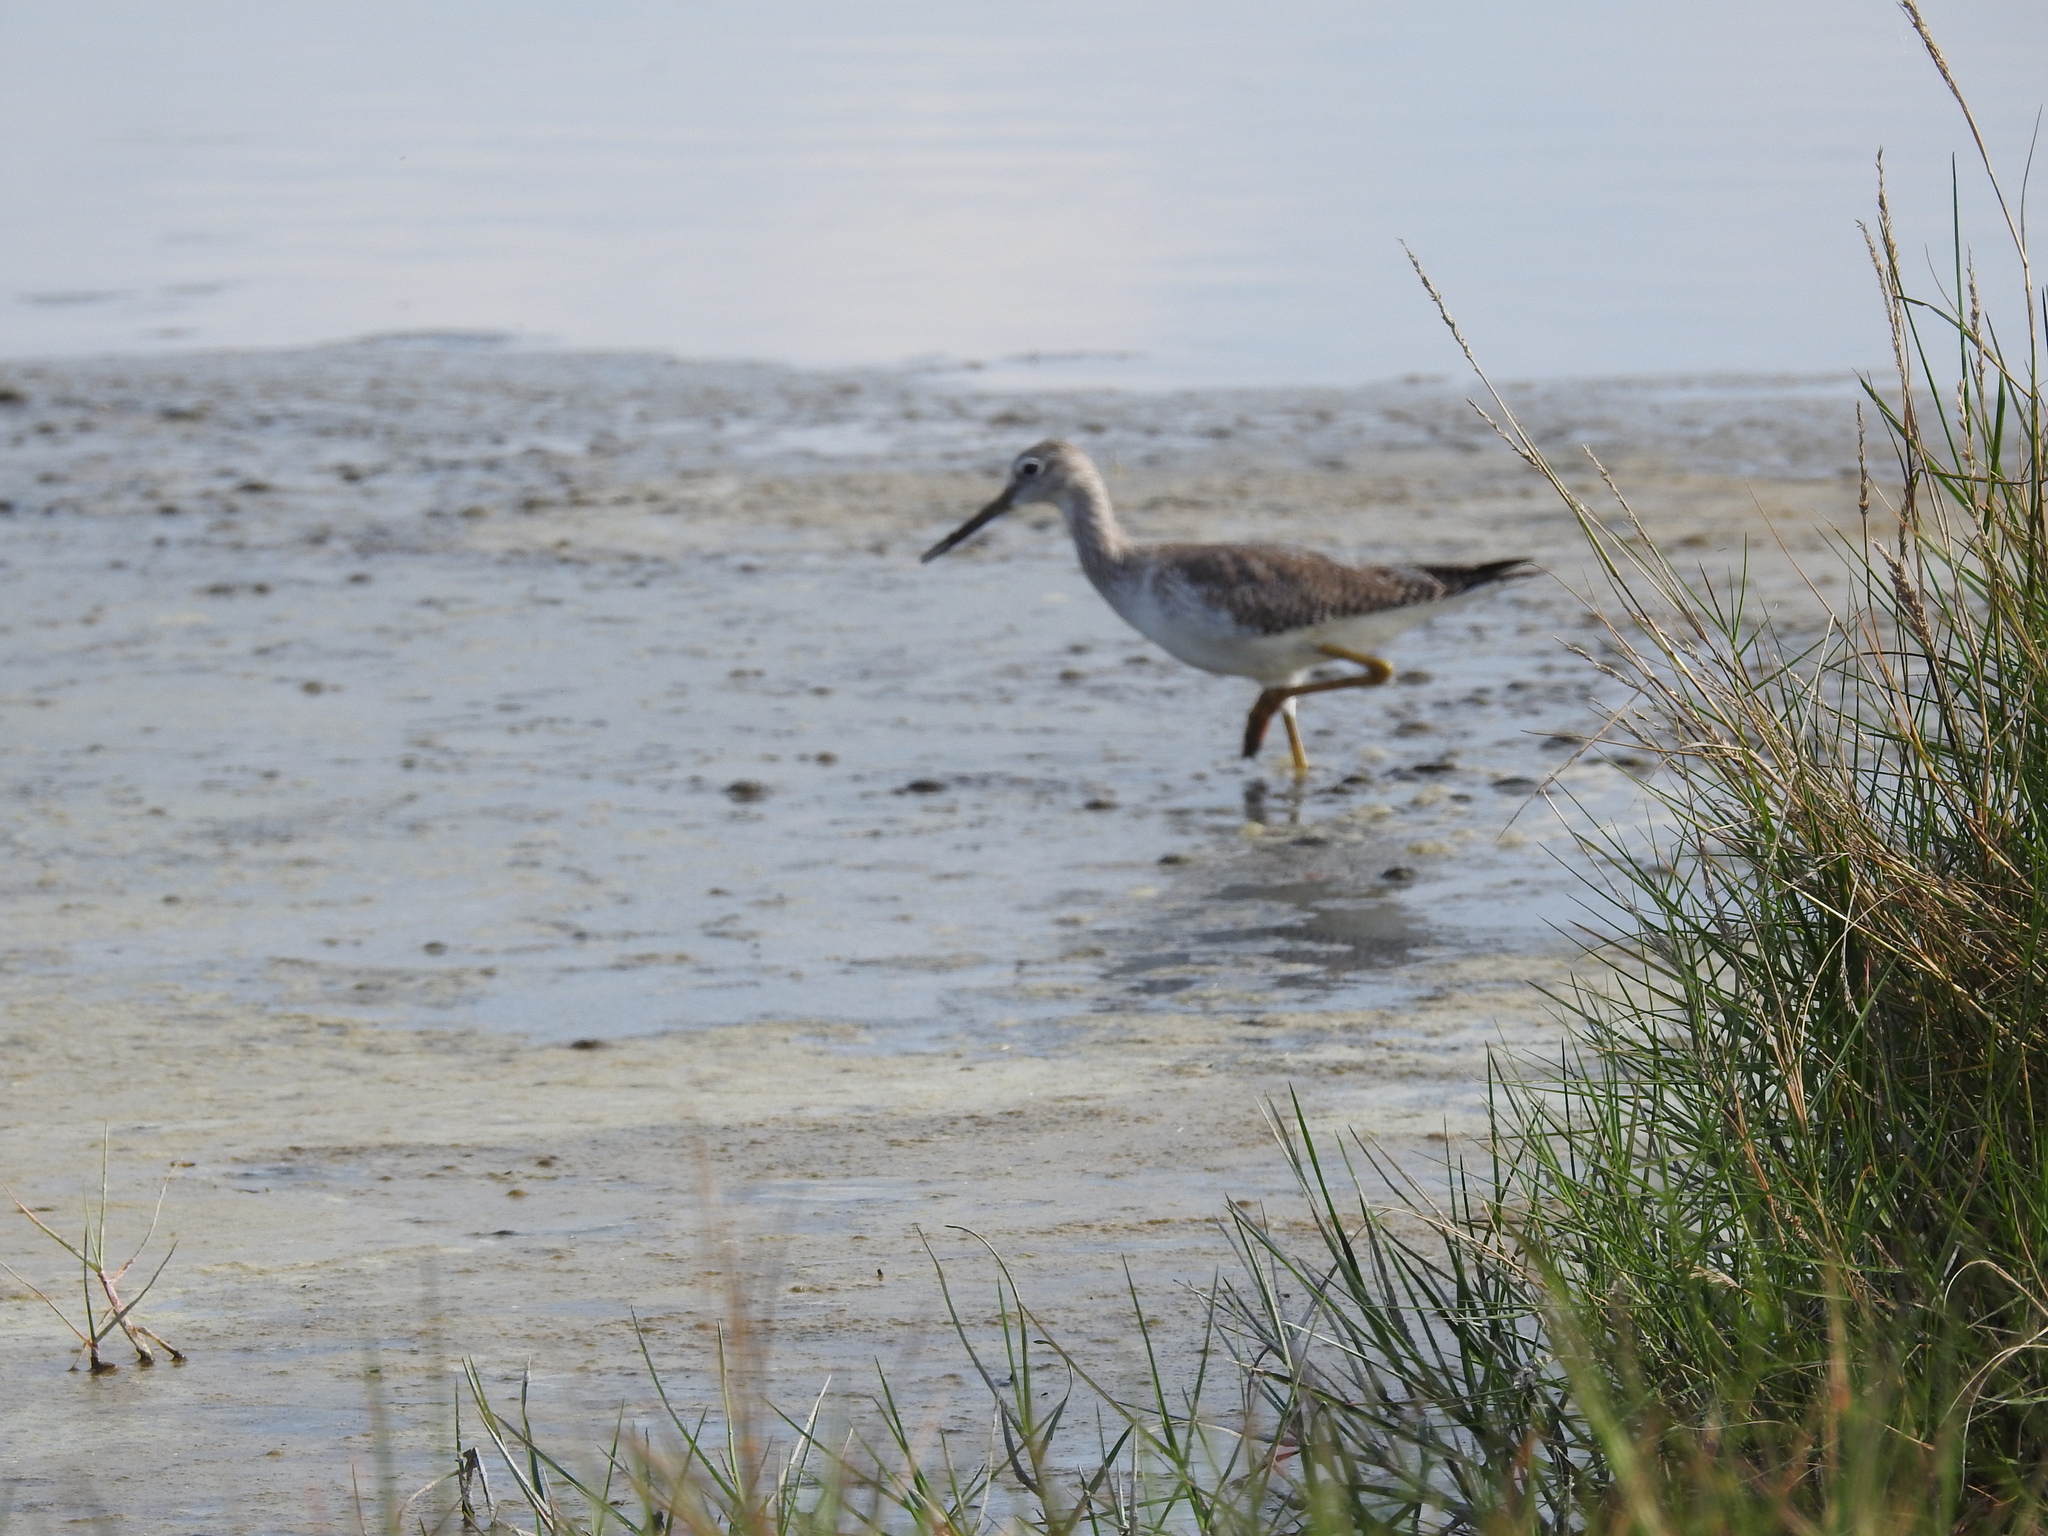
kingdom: Animalia
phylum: Chordata
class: Aves
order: Charadriiformes
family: Scolopacidae
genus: Tringa
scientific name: Tringa melanoleuca
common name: Greater yellowlegs
